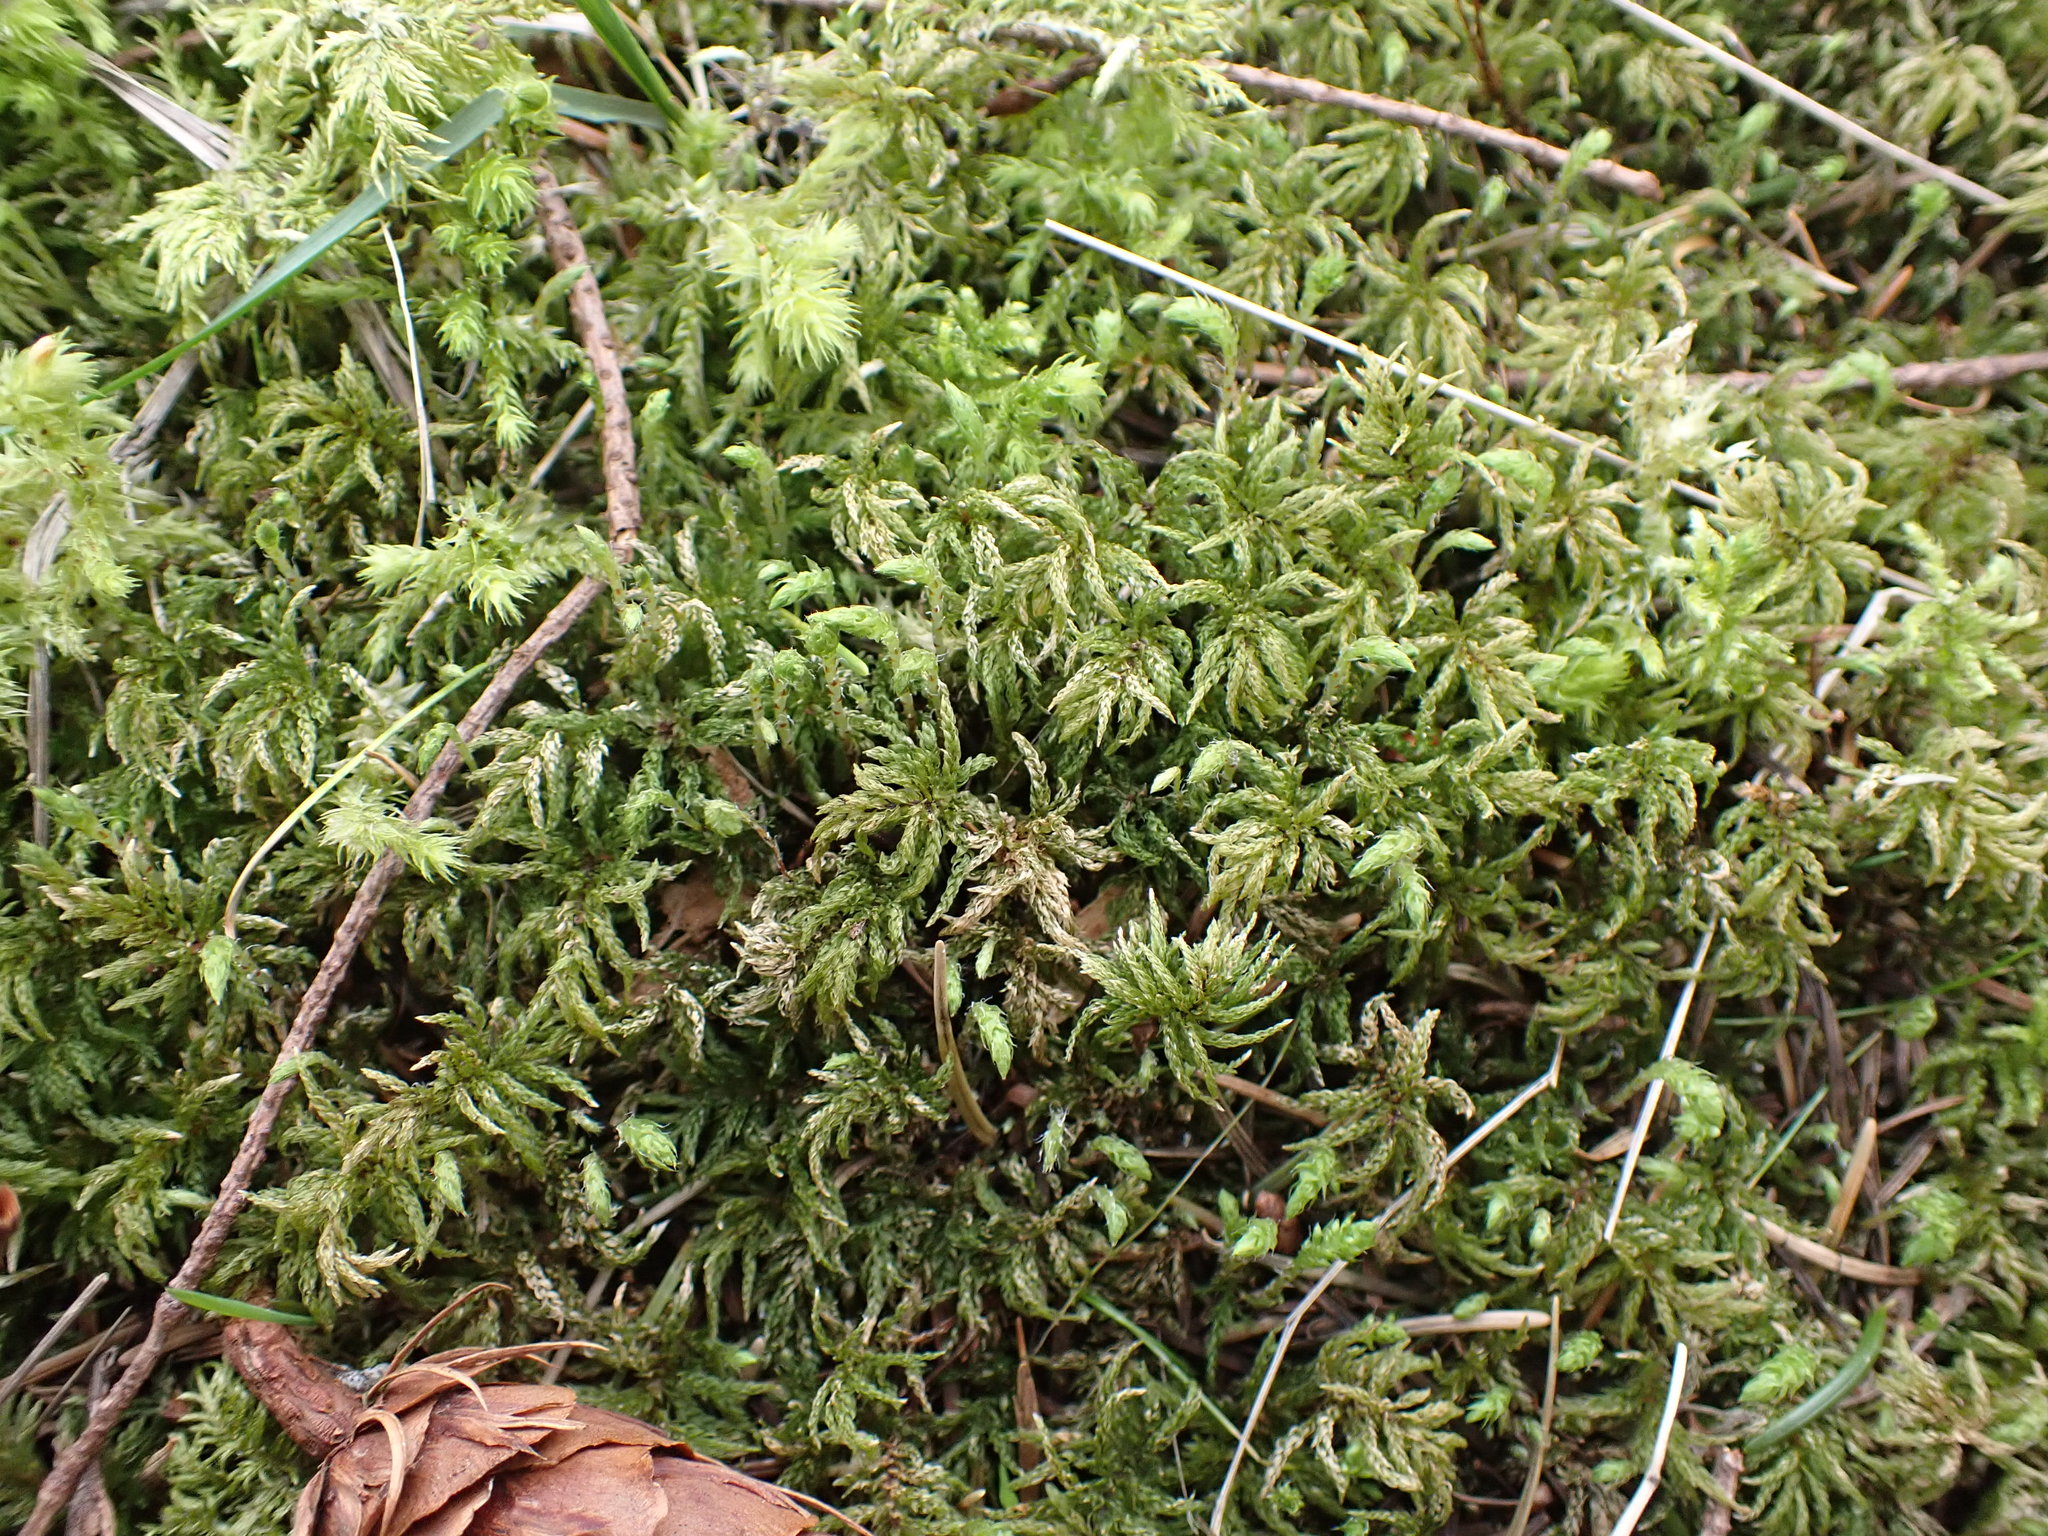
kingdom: Plantae
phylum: Bryophyta
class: Bryopsida
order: Bryales
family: Mniaceae
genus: Leucolepis
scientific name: Leucolepis acanthoneura
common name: Leucolepis umbrella moss
